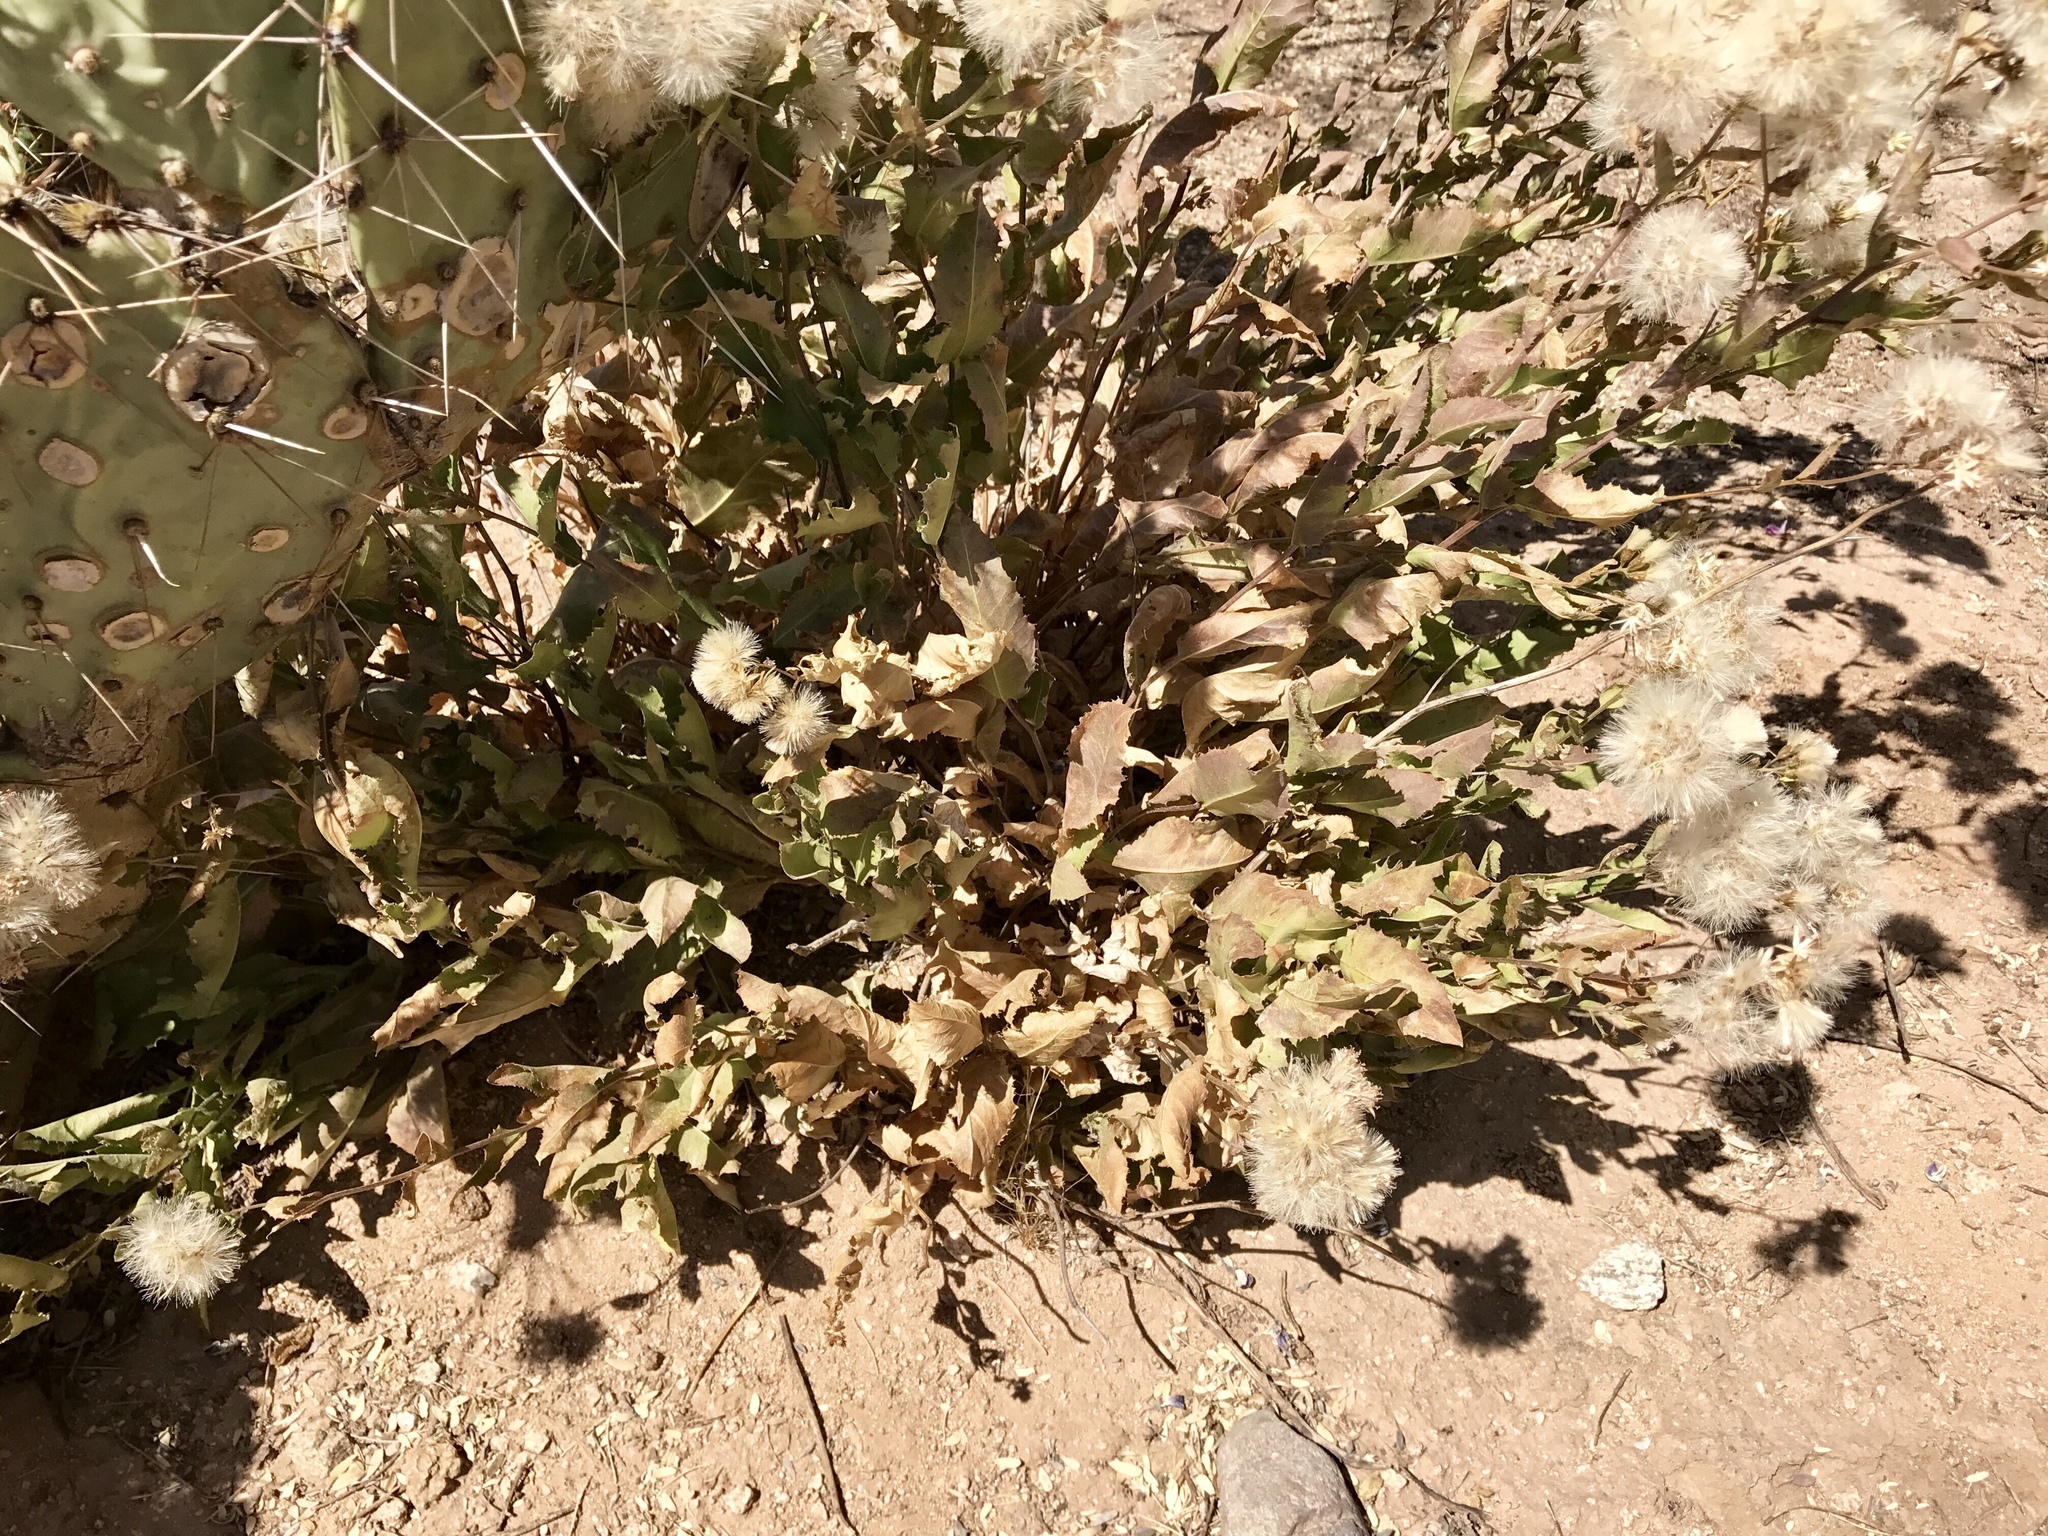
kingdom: Plantae
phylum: Tracheophyta
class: Magnoliopsida
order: Asterales
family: Asteraceae
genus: Acourtia
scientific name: Acourtia wrightii
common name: Brownfoot
